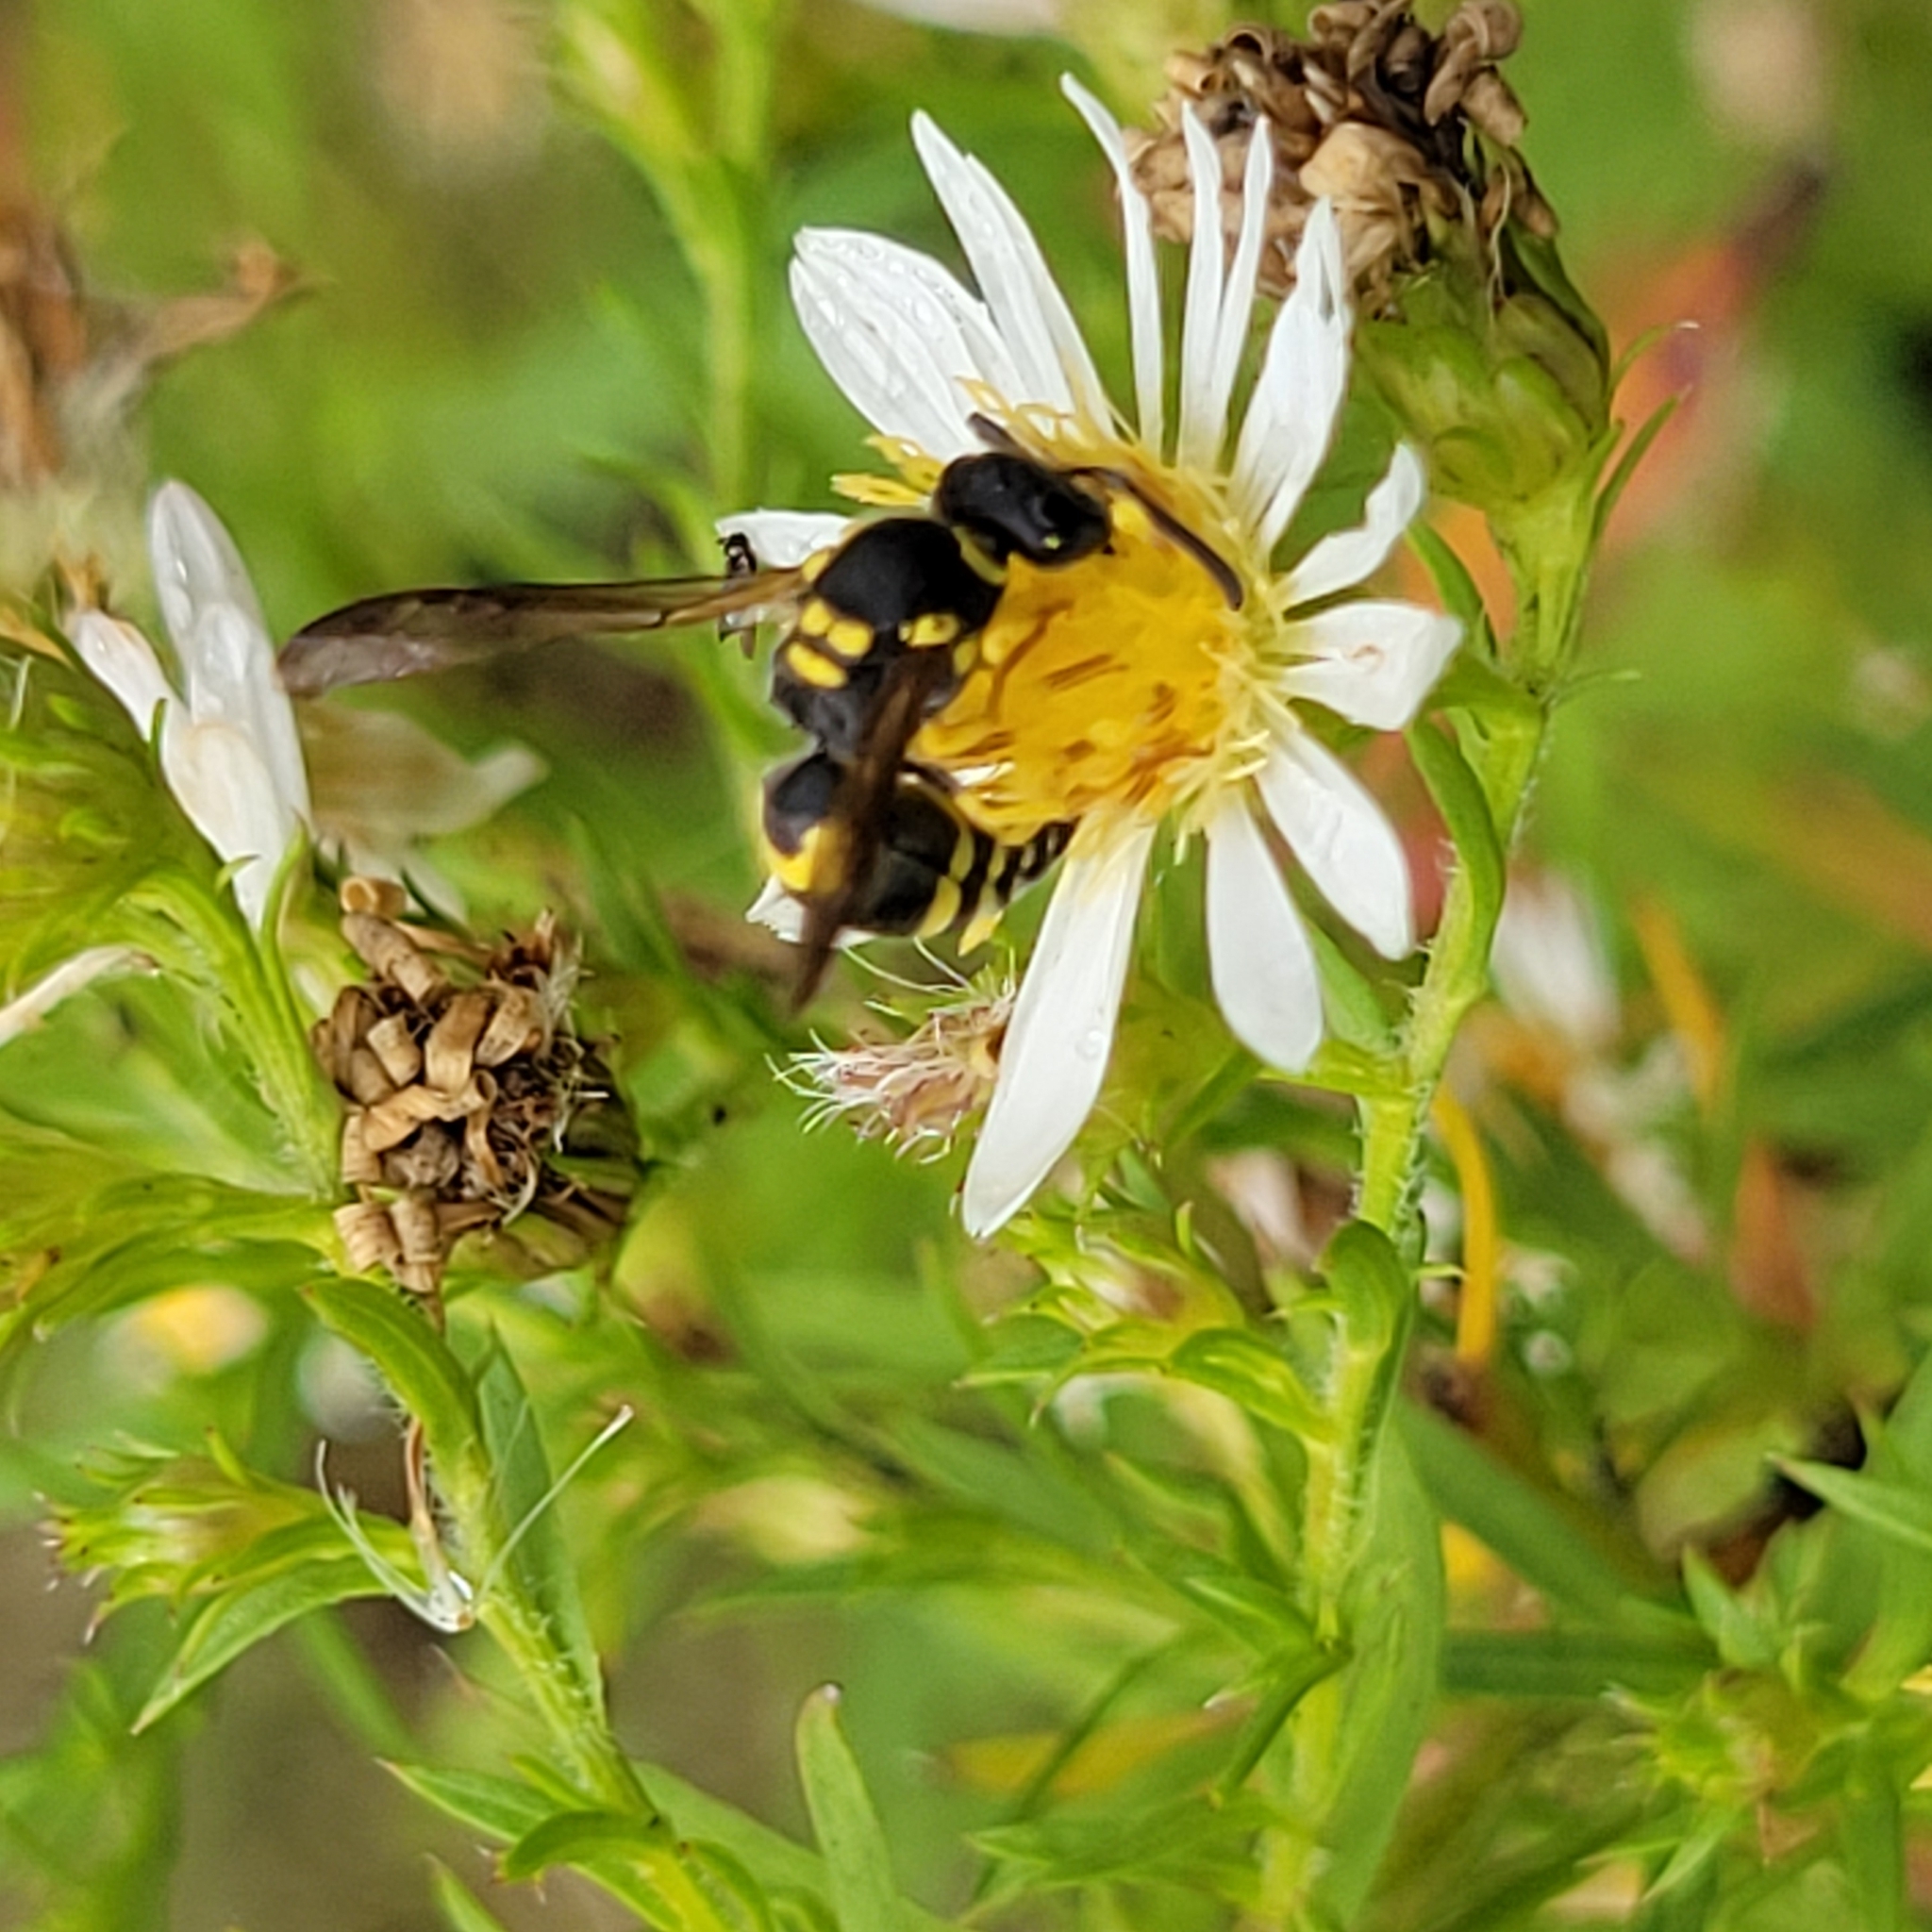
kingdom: Animalia
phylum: Arthropoda
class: Insecta
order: Hymenoptera
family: Vespidae
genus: Ancistrocerus
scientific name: Ancistrocerus gazella
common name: European tube wasp
